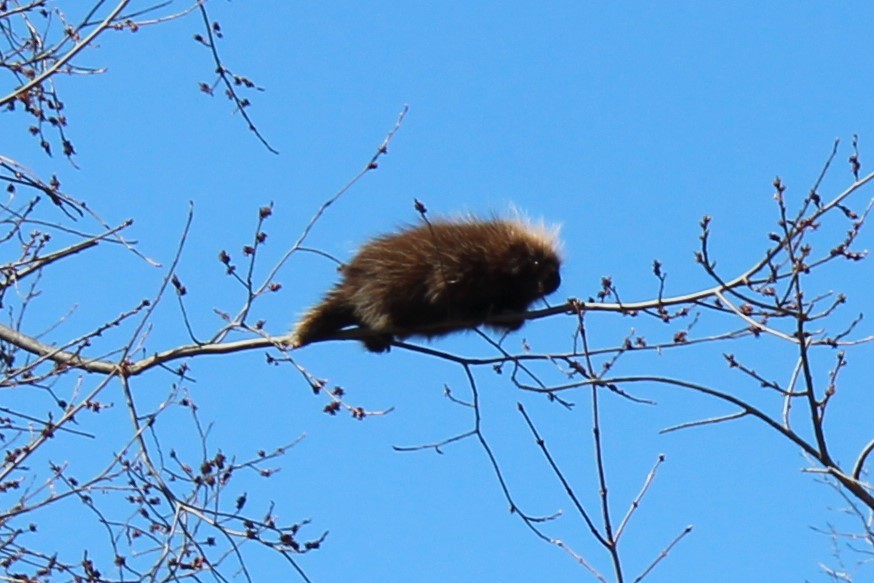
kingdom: Animalia
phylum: Chordata
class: Mammalia
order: Rodentia
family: Erethizontidae
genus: Erethizon
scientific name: Erethizon dorsatus
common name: North american porcupine
